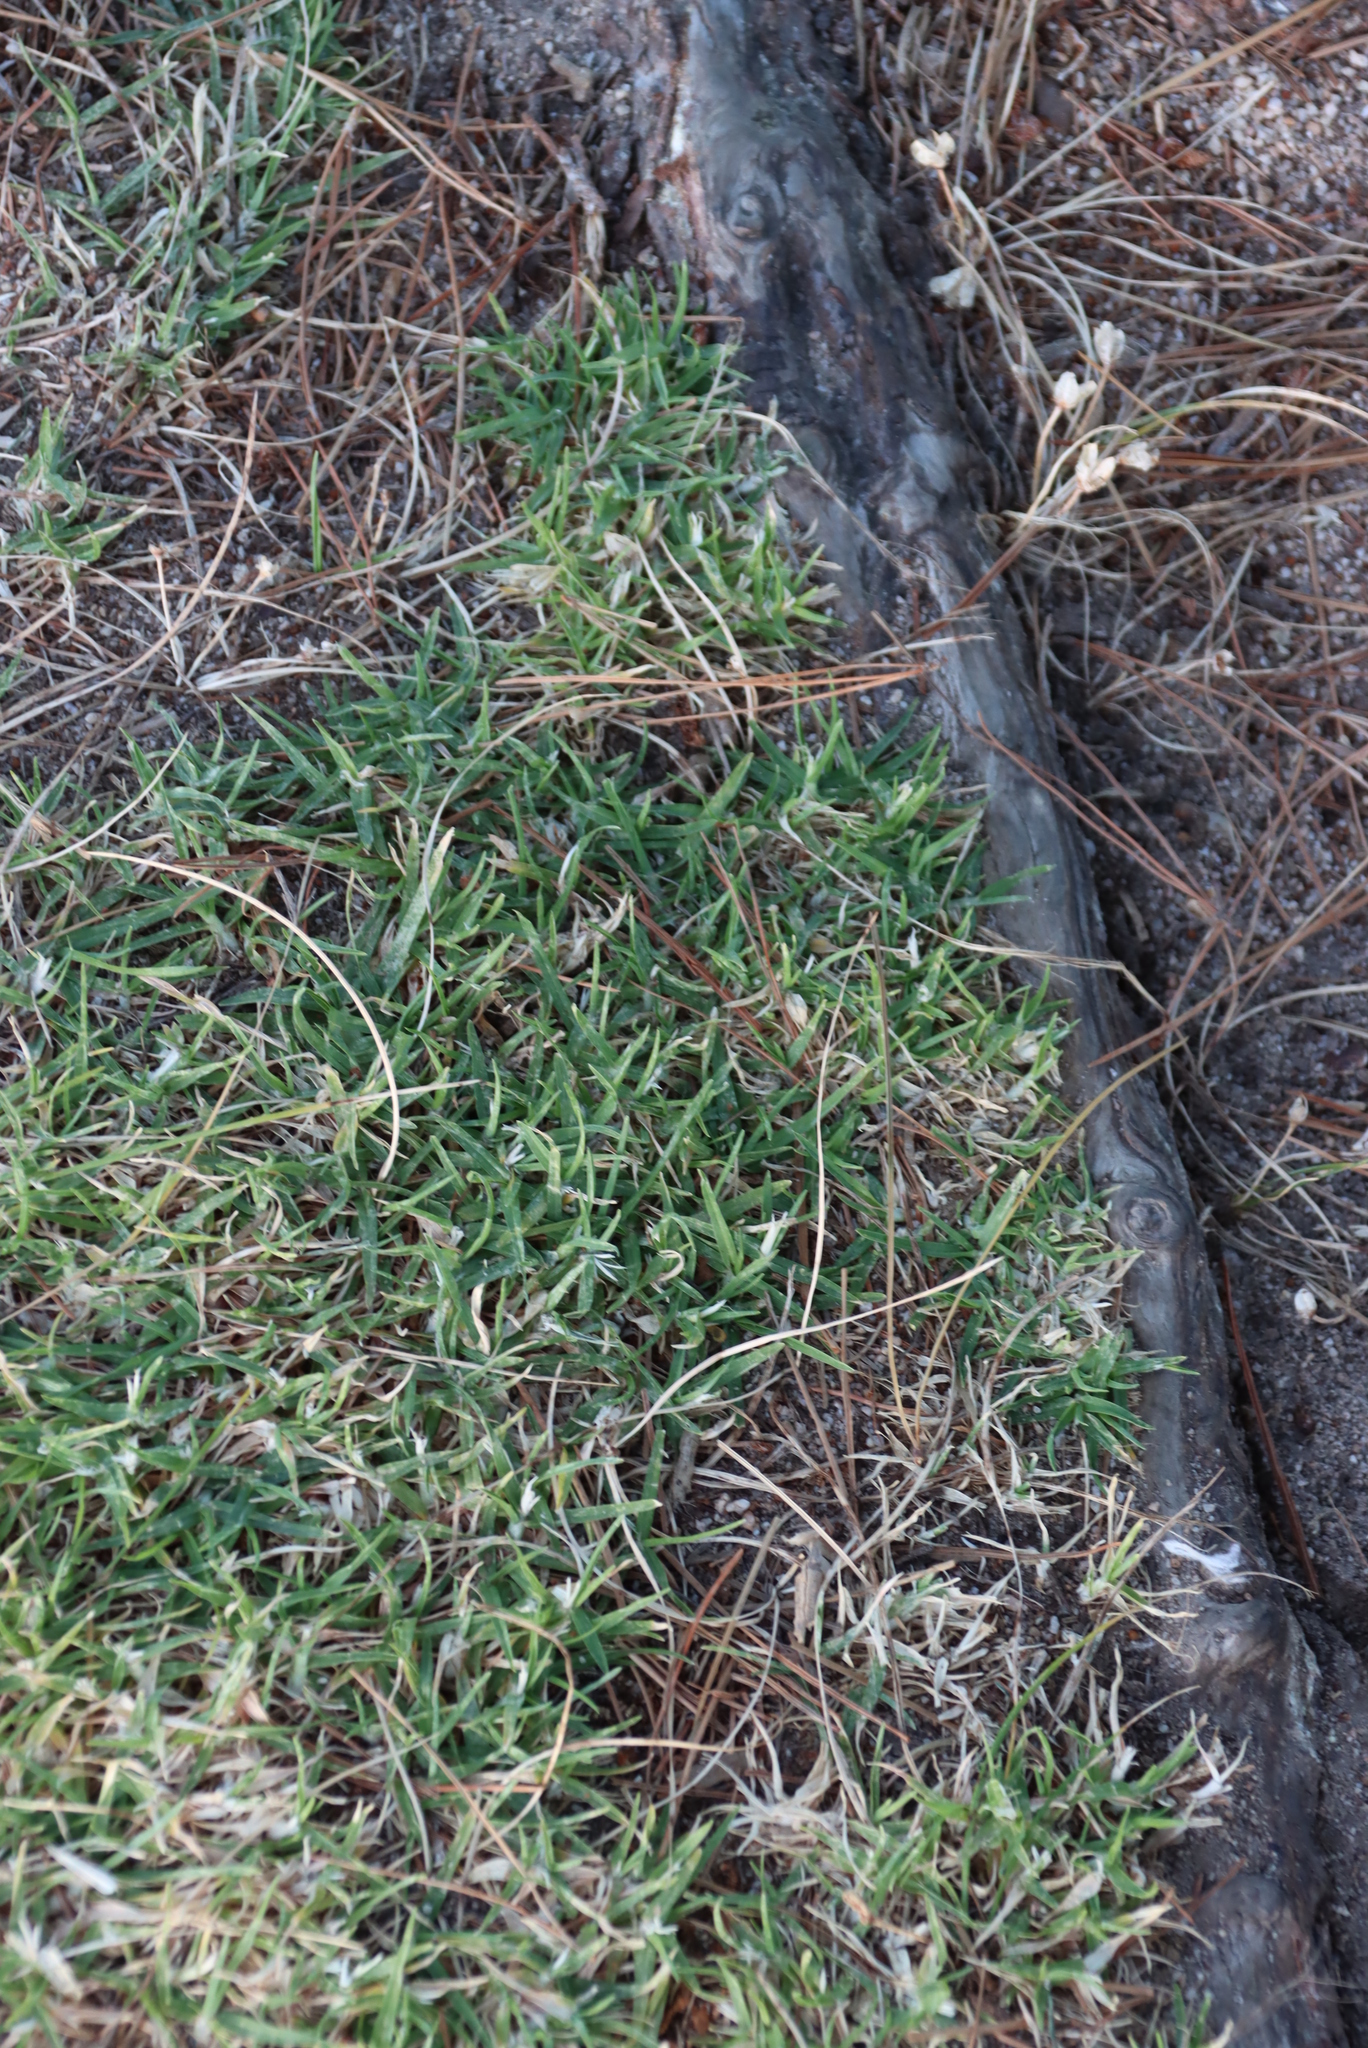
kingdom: Plantae
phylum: Tracheophyta
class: Liliopsida
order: Poales
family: Poaceae
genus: Cenchrus
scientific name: Cenchrus clandestinus
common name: Kikuyugrass
